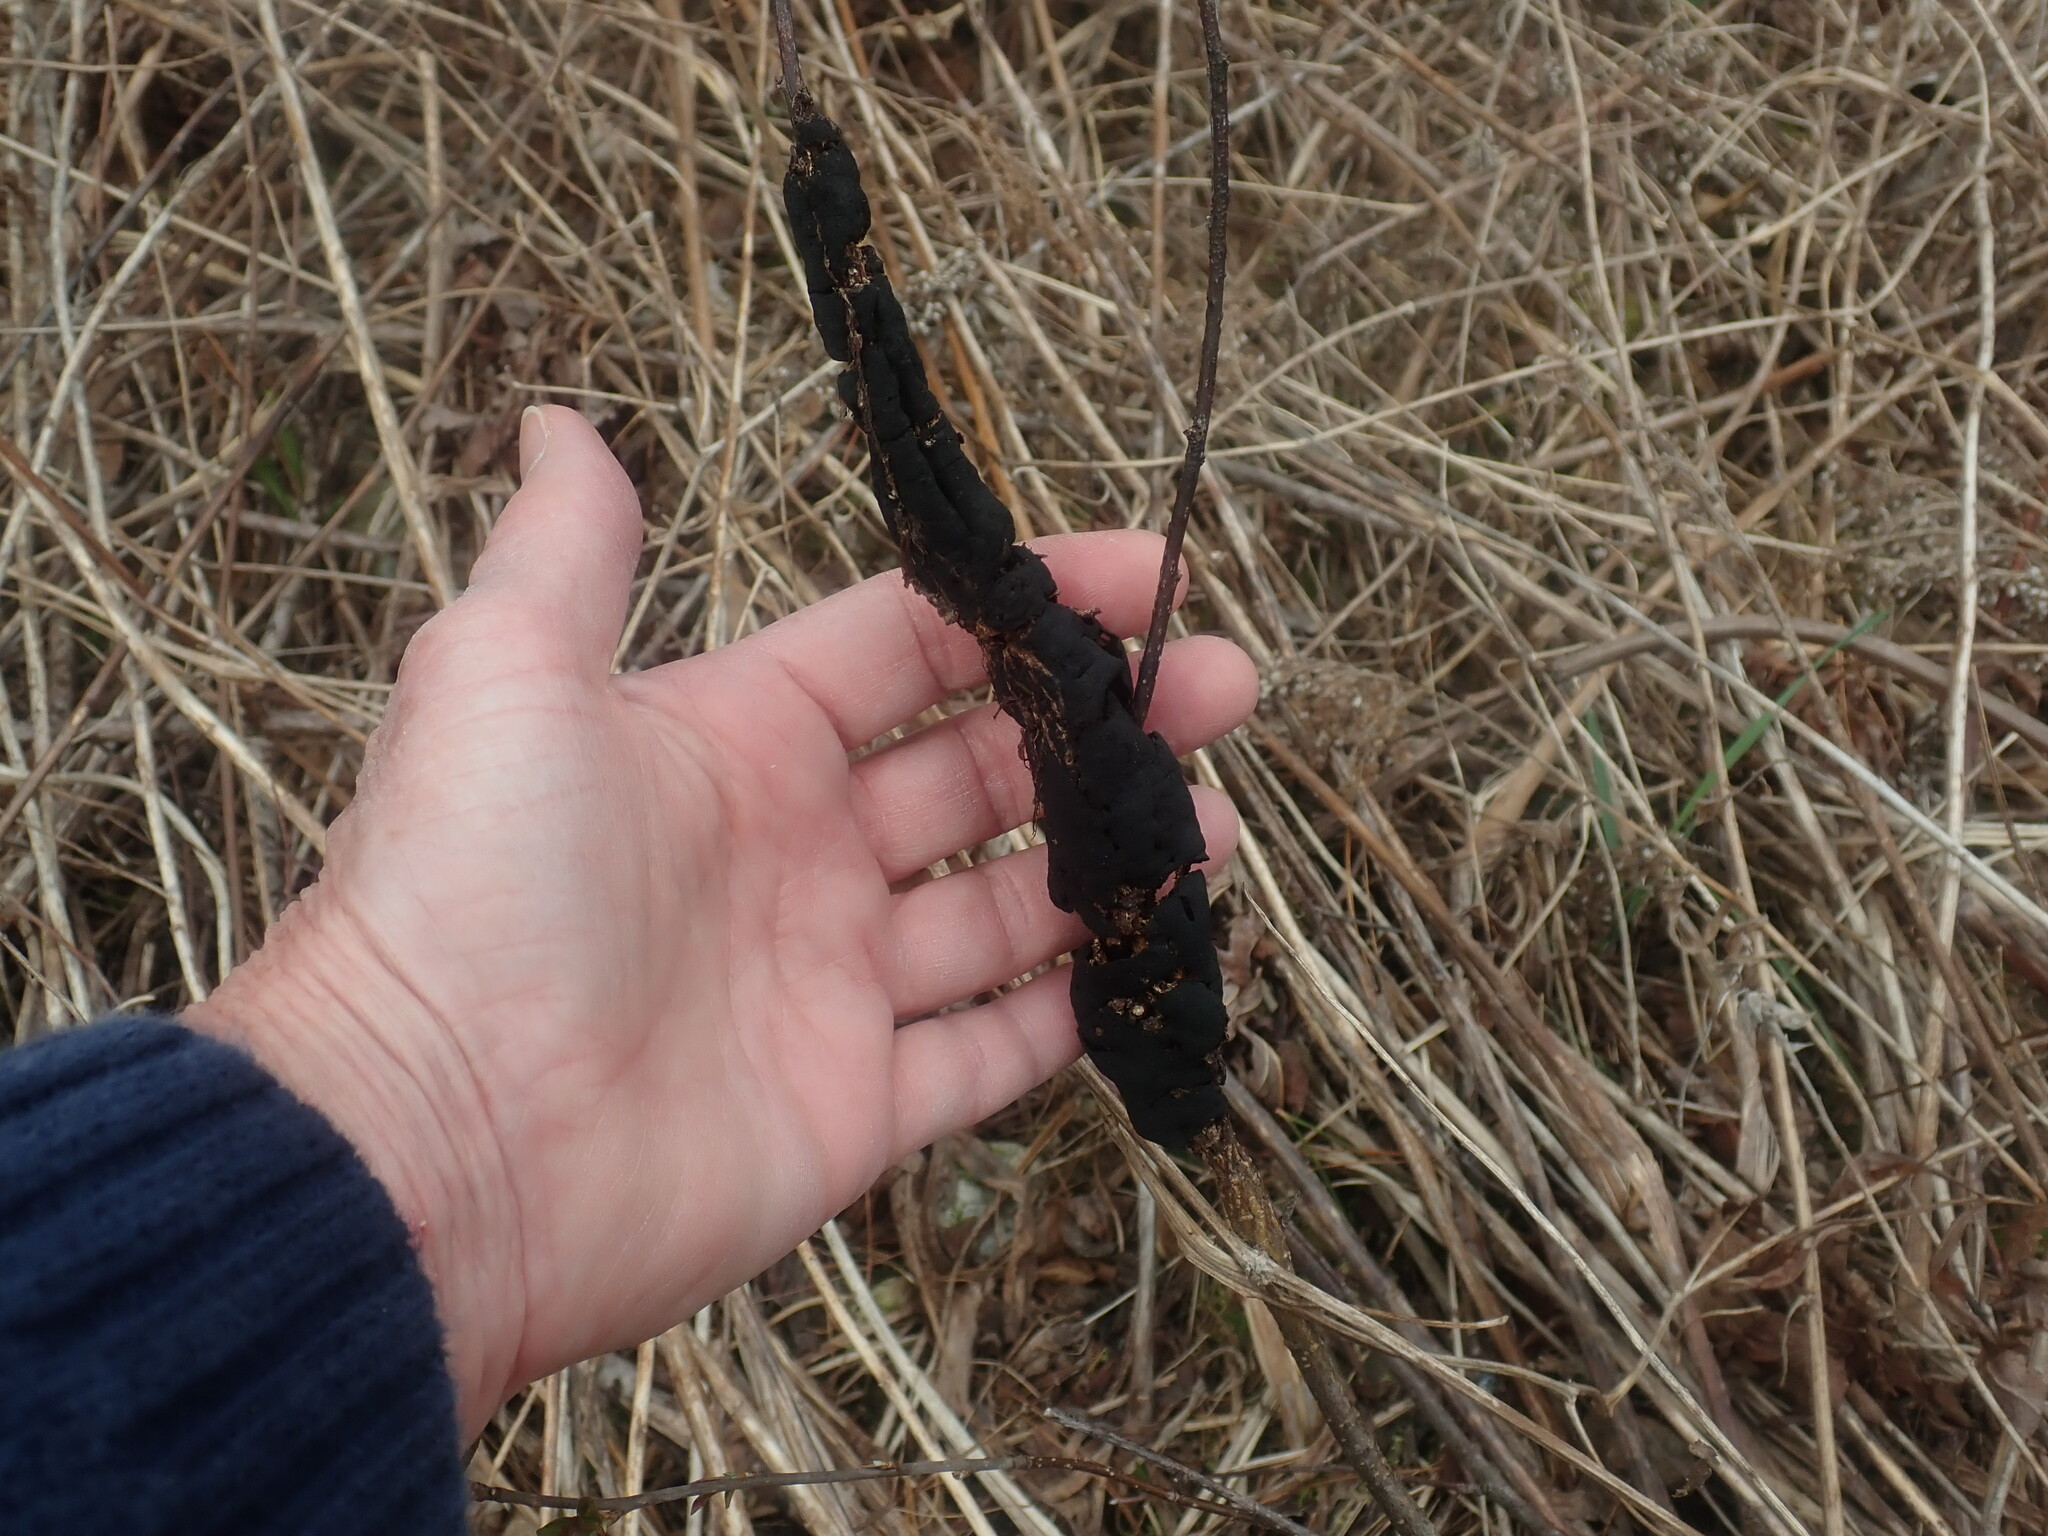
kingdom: Fungi
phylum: Ascomycota
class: Dothideomycetes
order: Venturiales
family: Venturiaceae
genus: Apiosporina
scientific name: Apiosporina morbosa
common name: Black knot
